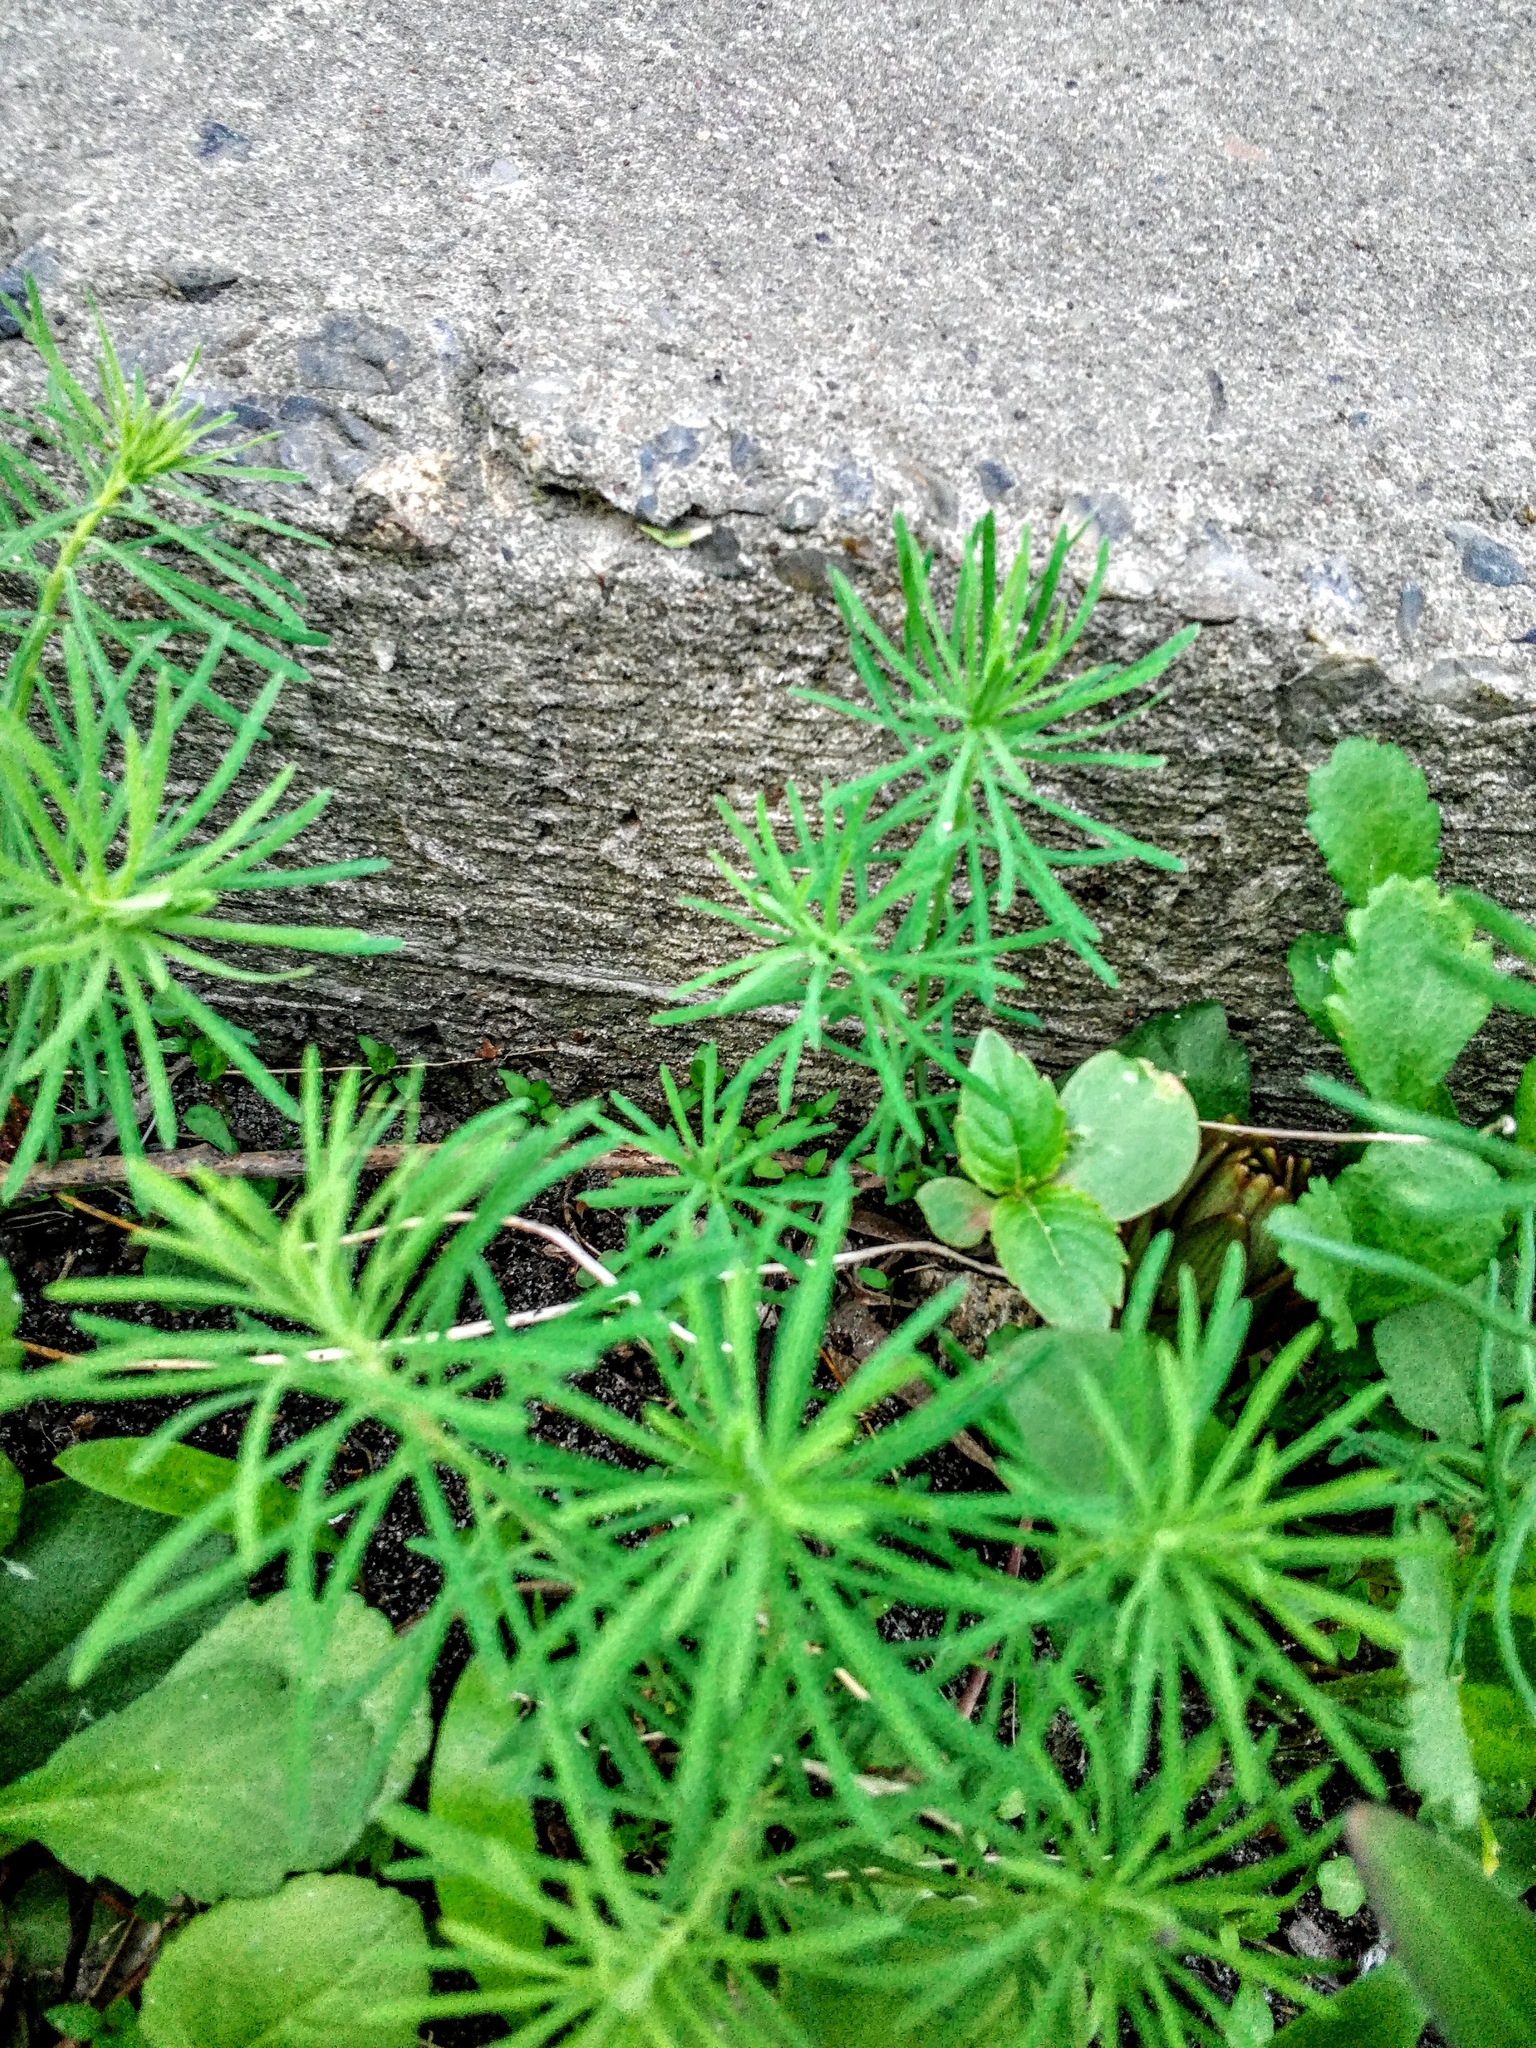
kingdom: Plantae
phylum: Tracheophyta
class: Magnoliopsida
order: Malpighiales
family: Euphorbiaceae
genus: Euphorbia
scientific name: Euphorbia cyparissias
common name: Cypress spurge
